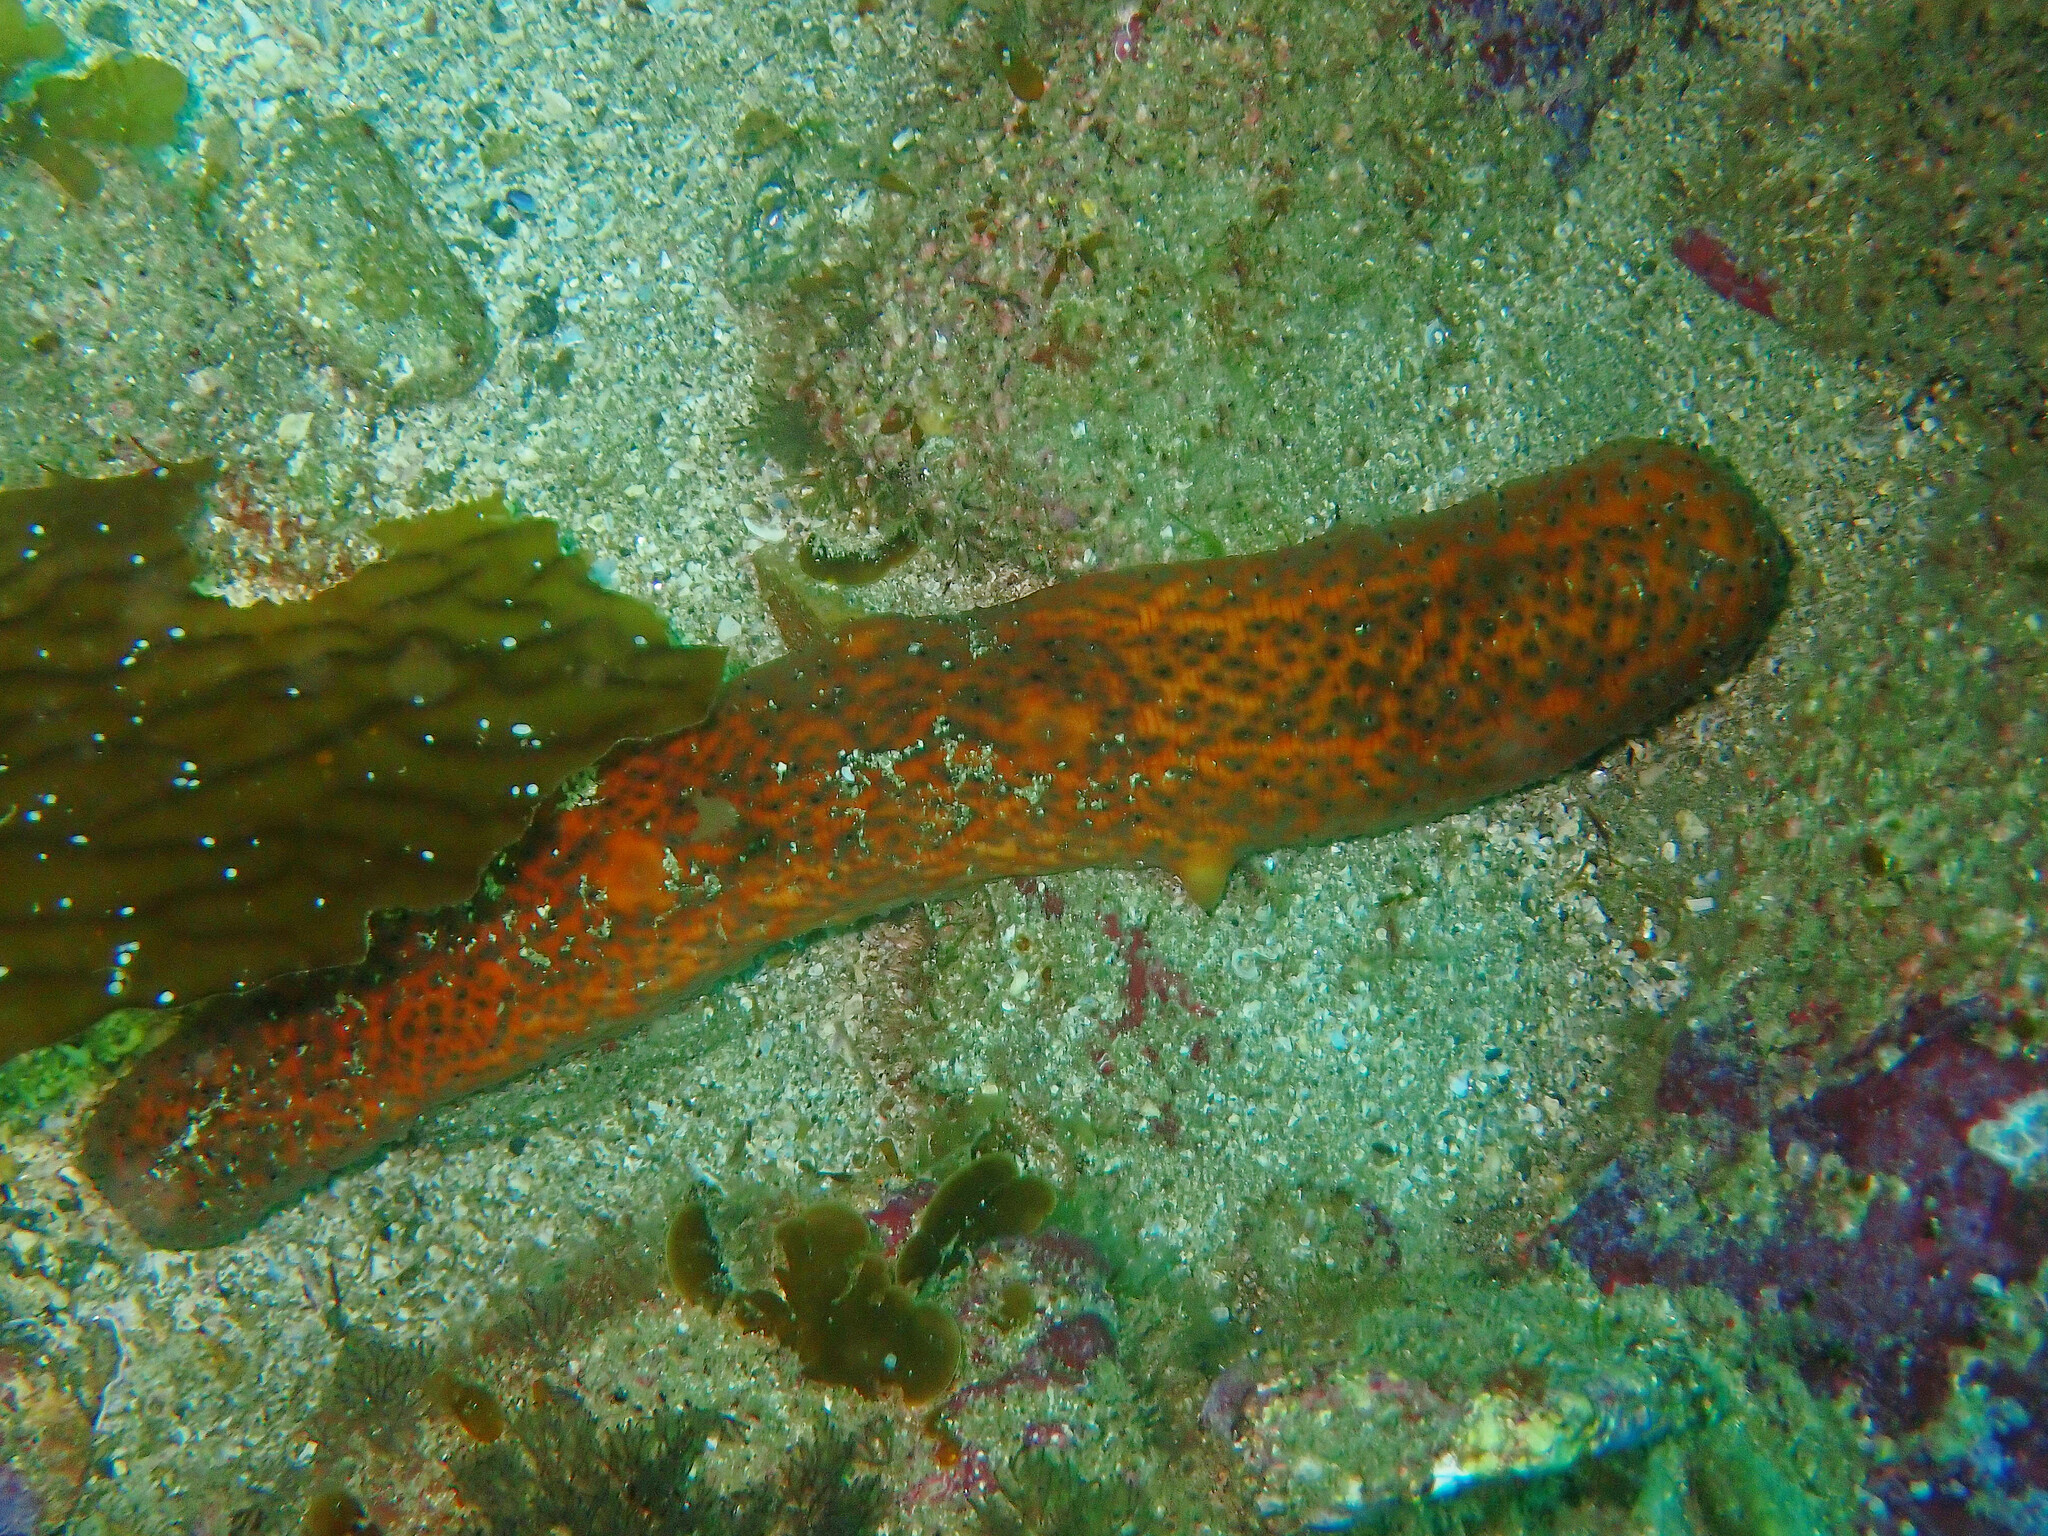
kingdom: Animalia
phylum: Echinodermata
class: Holothuroidea
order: Synallactida
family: Stichopodidae
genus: Apostichopus
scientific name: Apostichopus parvimensis
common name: Warty sea cucumber
